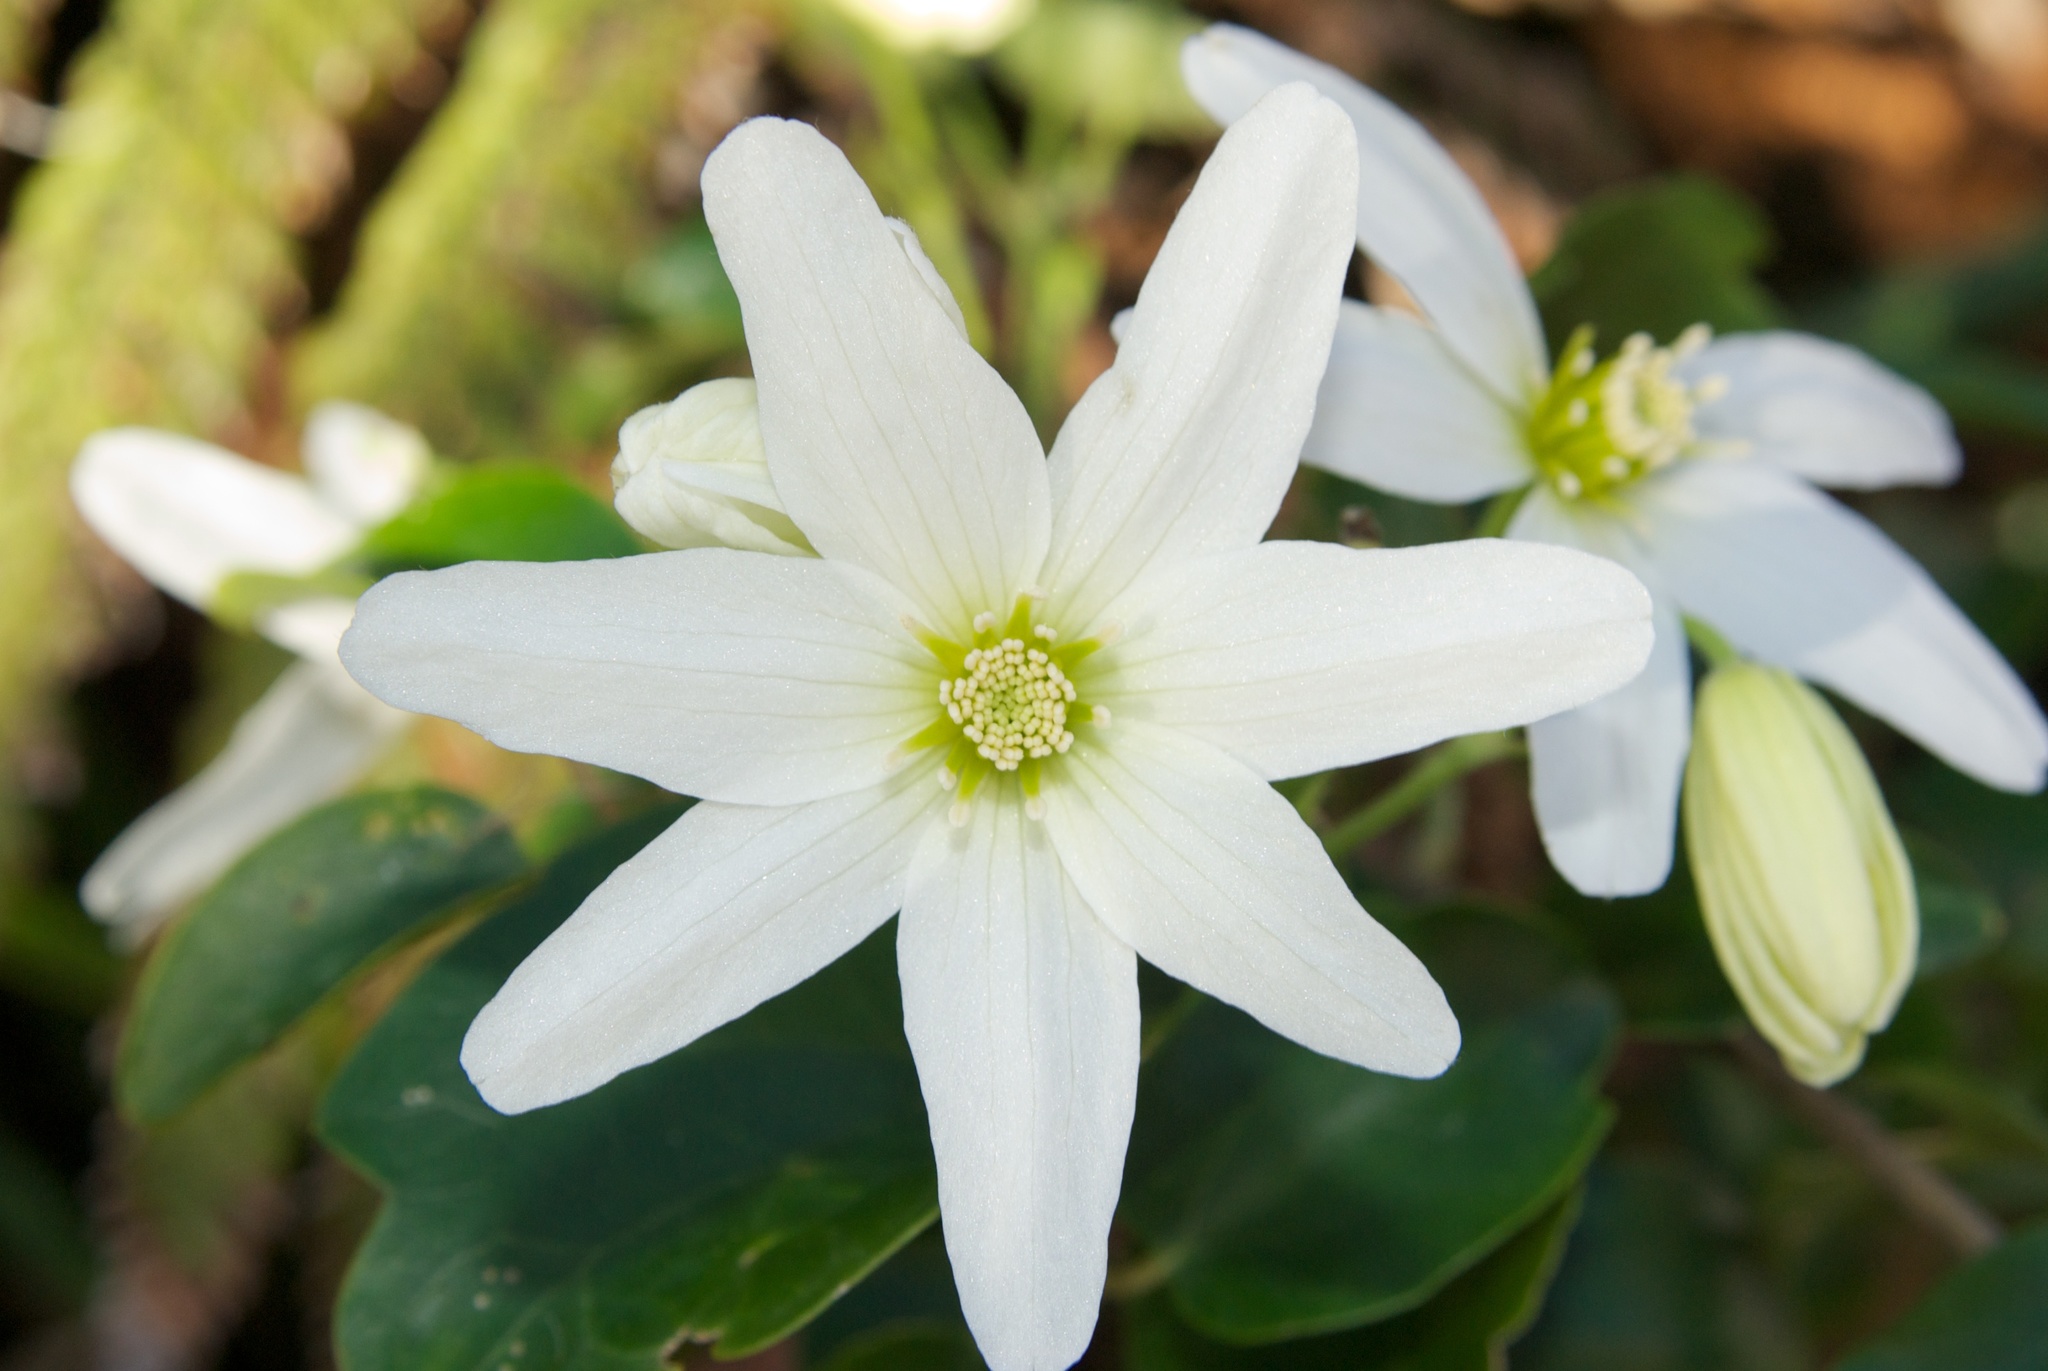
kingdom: Plantae
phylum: Tracheophyta
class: Magnoliopsida
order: Ranunculales
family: Ranunculaceae
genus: Clematis
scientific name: Clematis paniculata
